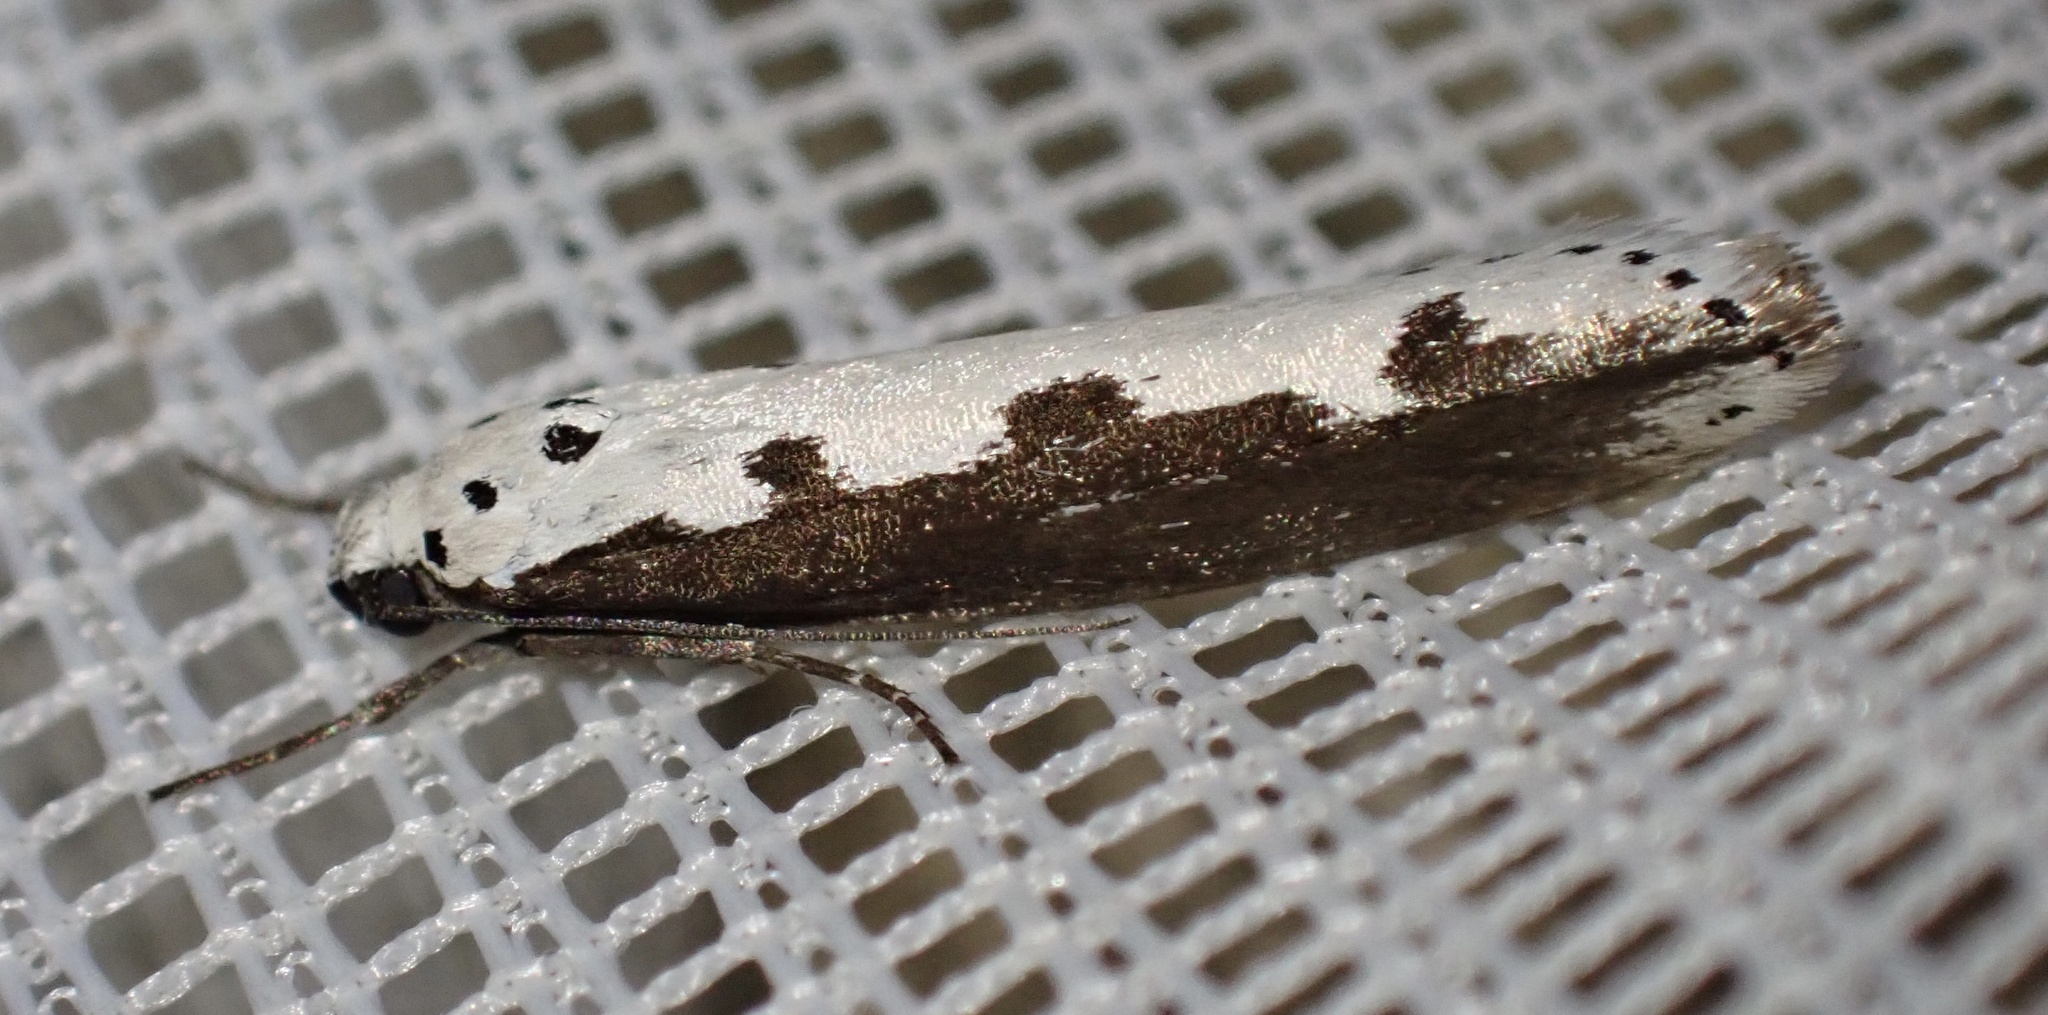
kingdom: Animalia
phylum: Arthropoda
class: Insecta
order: Lepidoptera
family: Ethmiidae
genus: Ethmia
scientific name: Ethmia bipunctella
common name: Bordered ermel
